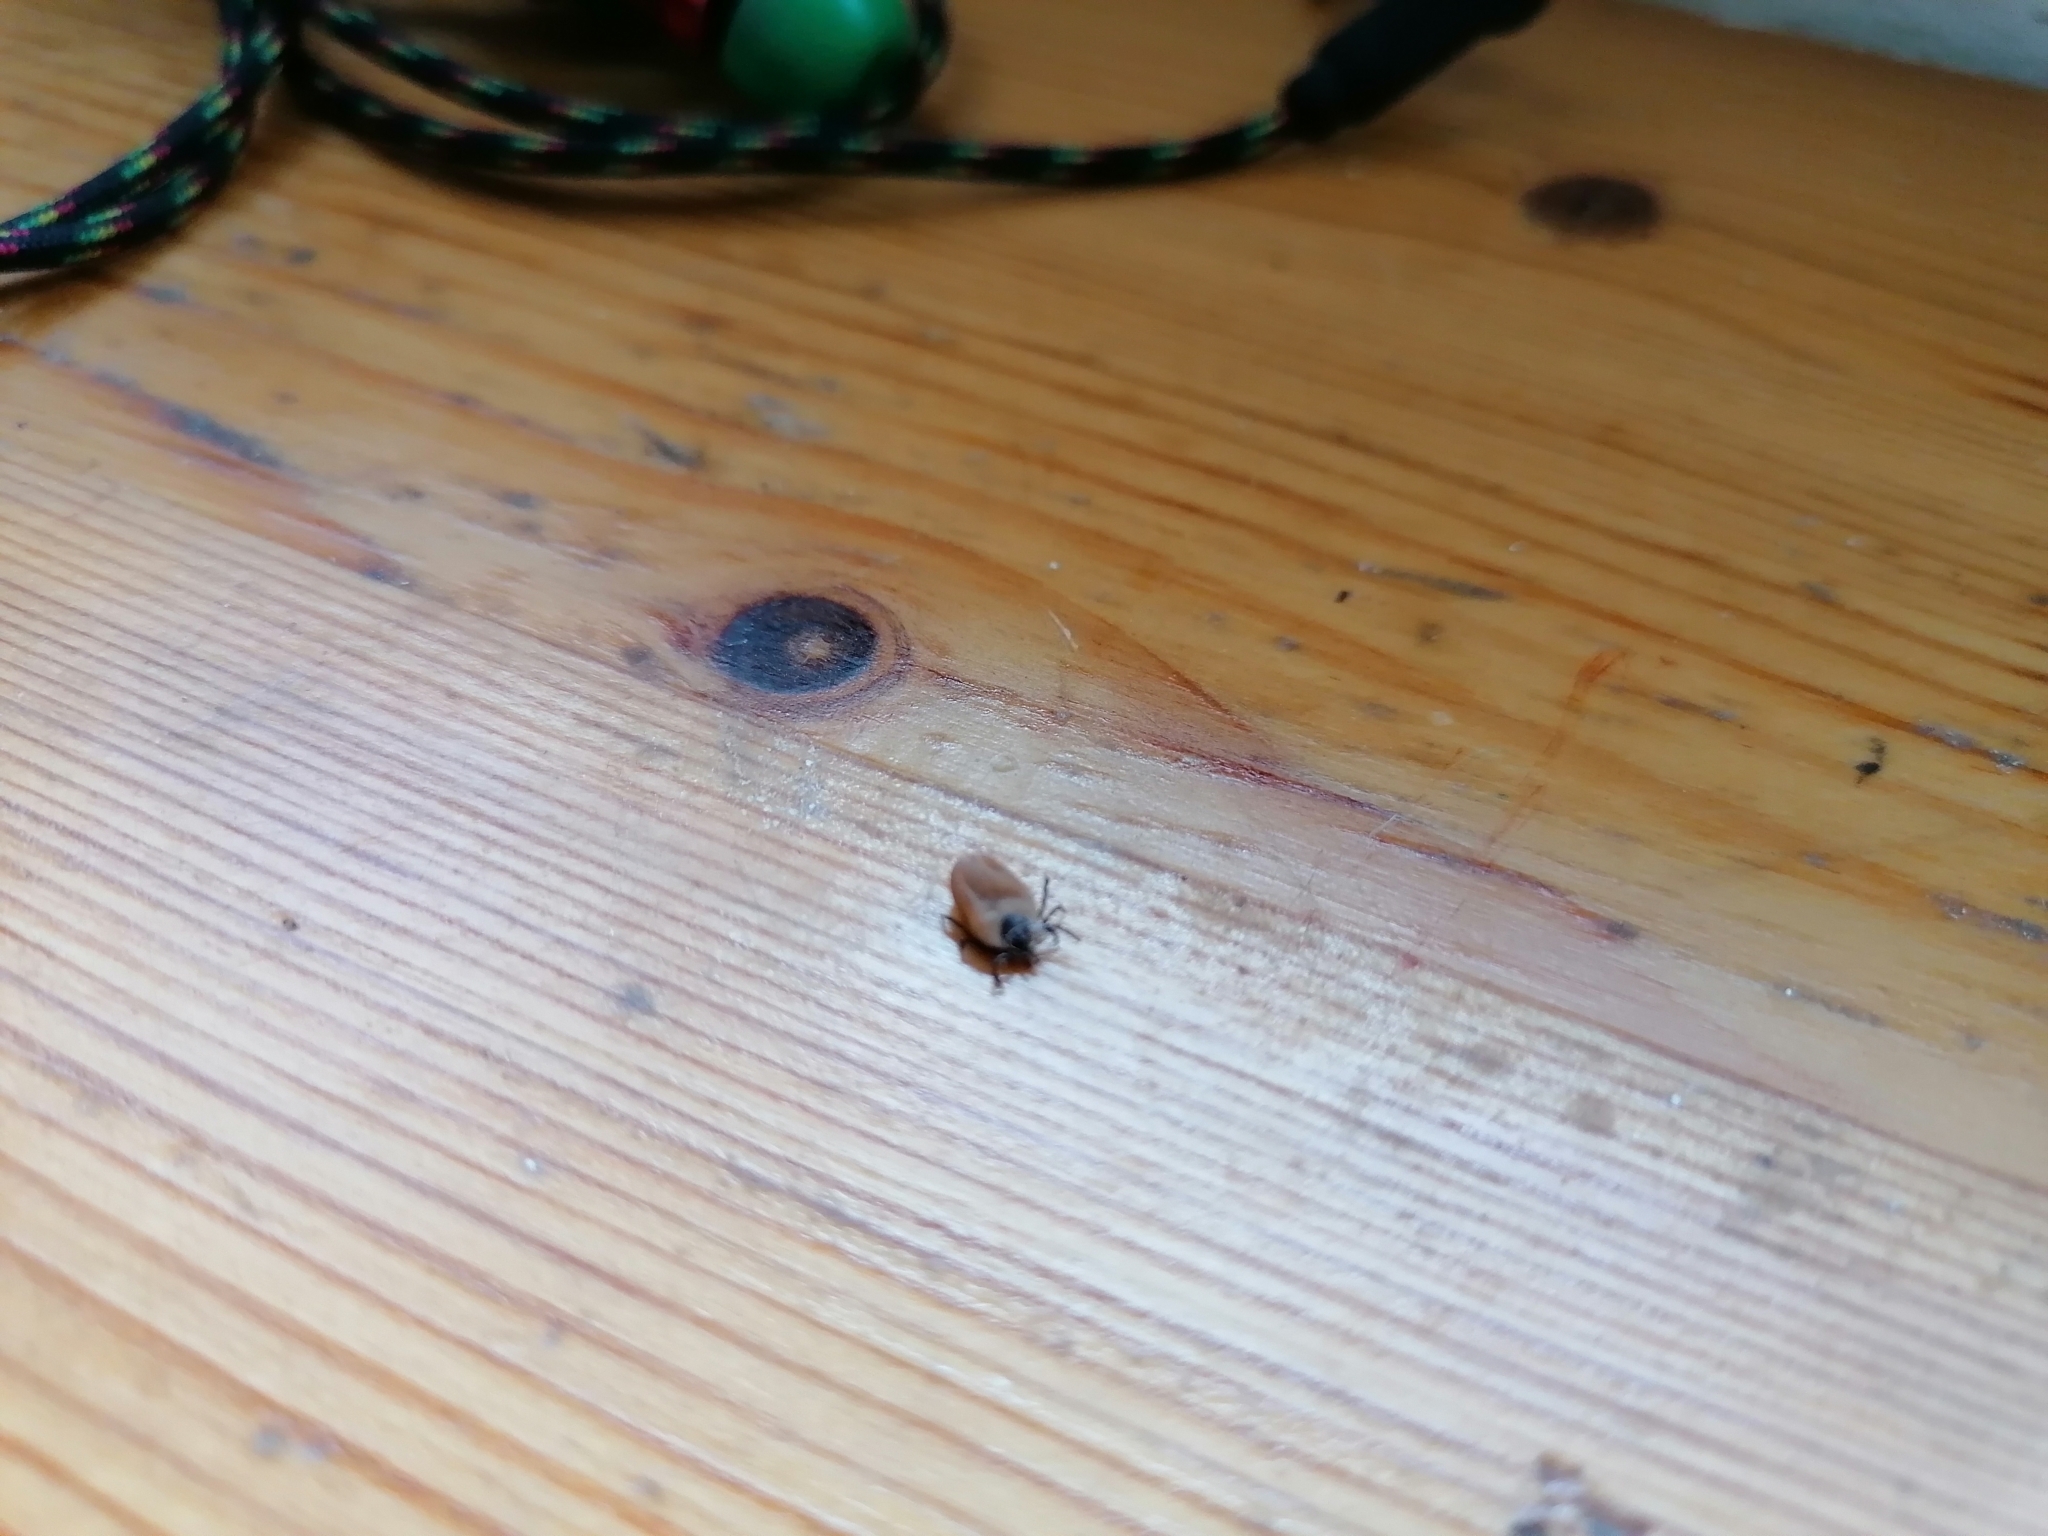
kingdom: Animalia
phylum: Arthropoda
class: Arachnida
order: Ixodida
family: Ixodidae
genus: Ixodes
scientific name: Ixodes ricinus
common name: Castor bean tick
